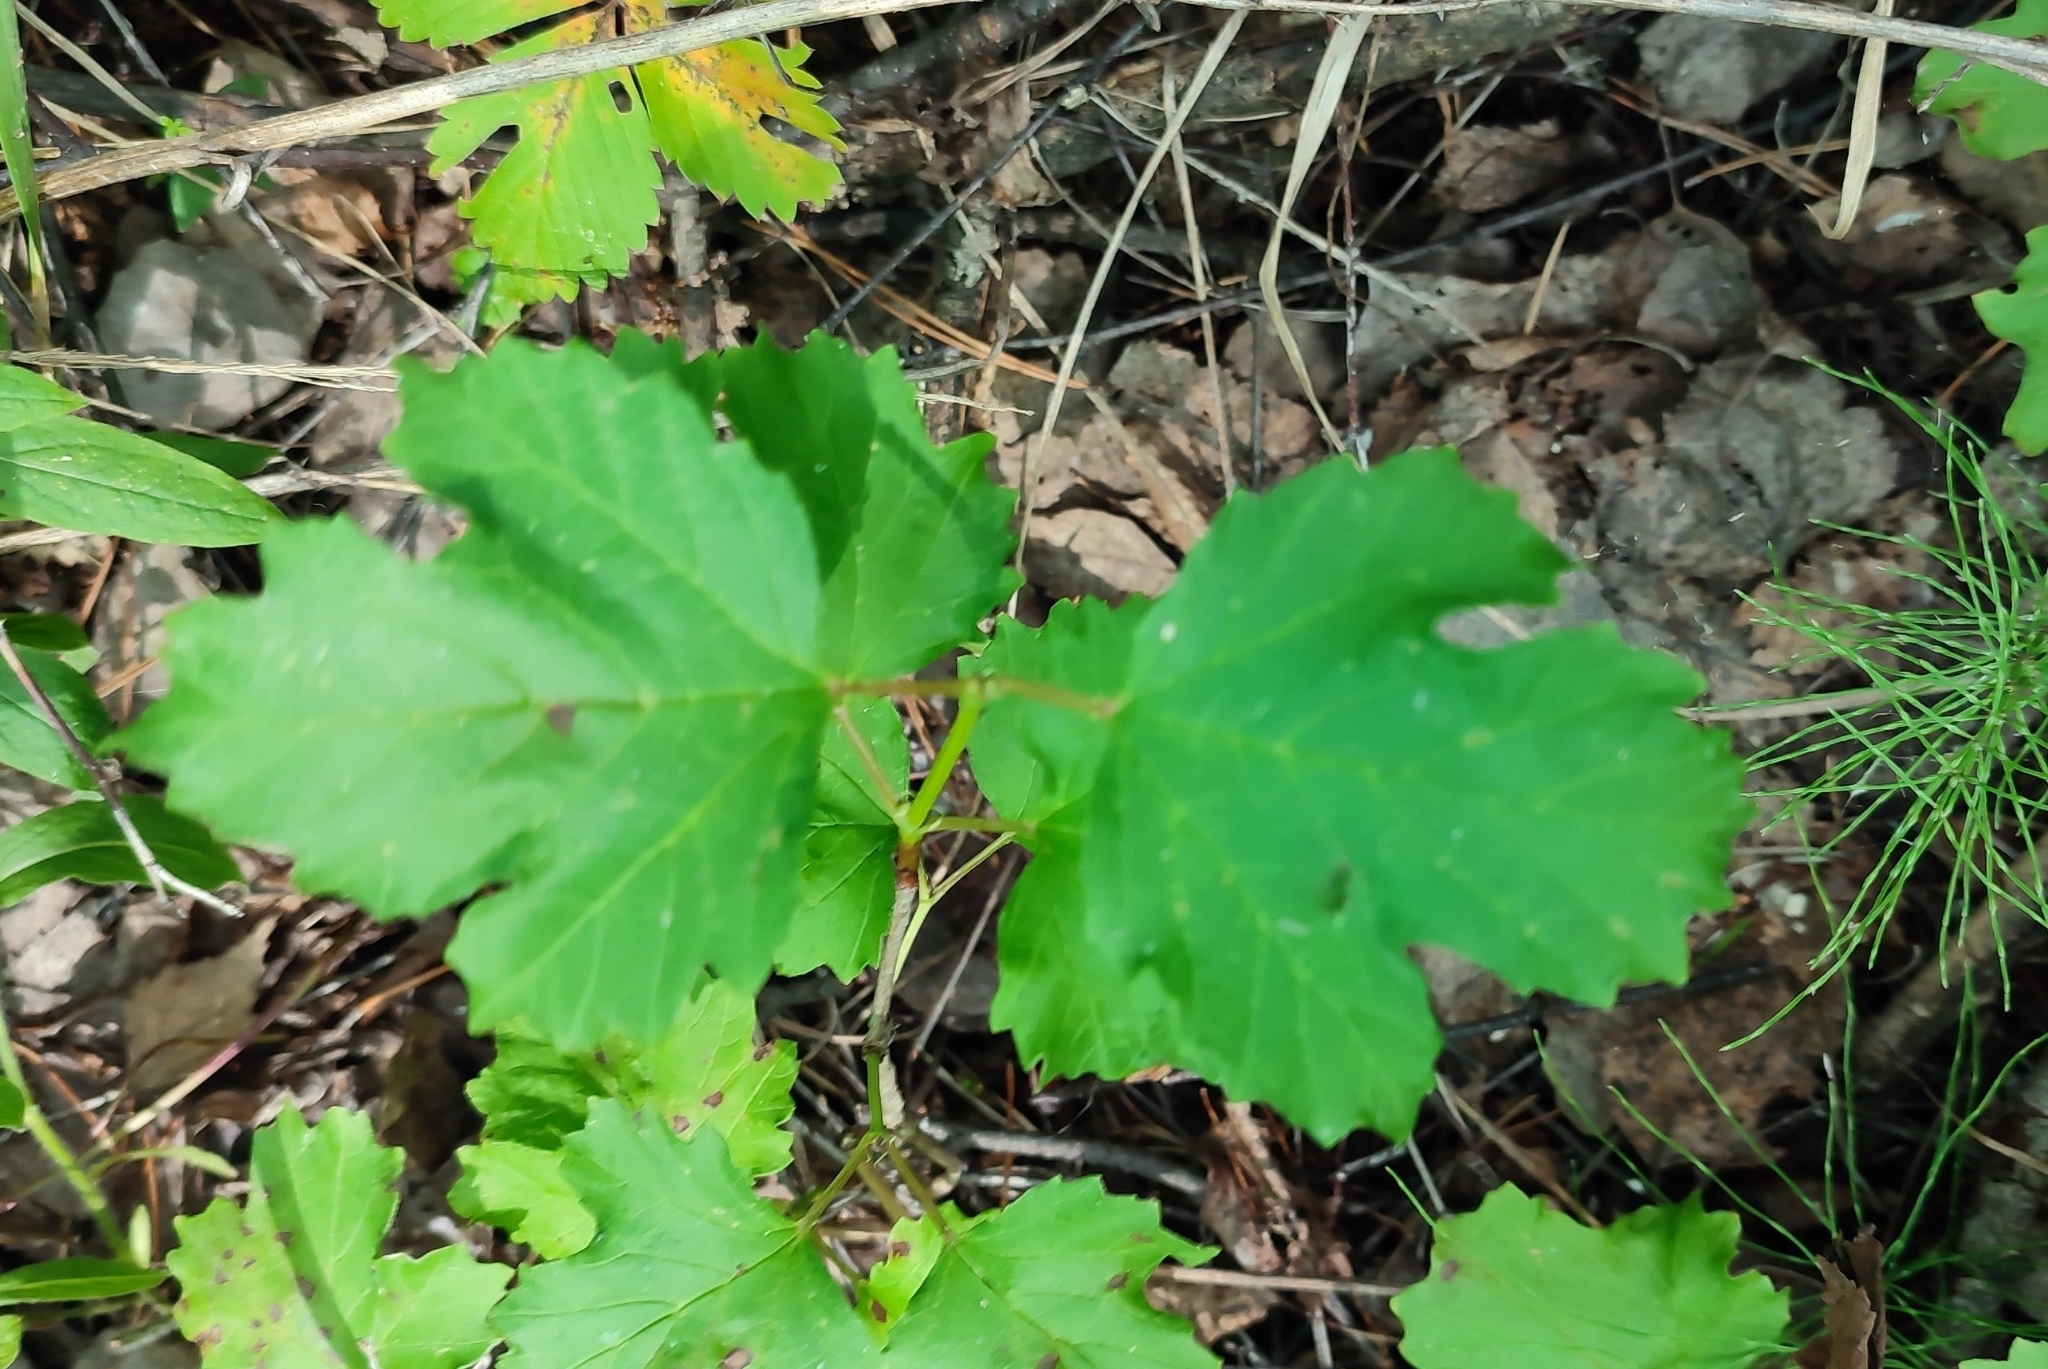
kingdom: Plantae
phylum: Tracheophyta
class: Magnoliopsida
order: Dipsacales
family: Viburnaceae
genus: Viburnum
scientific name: Viburnum opulus
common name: Guelder-rose
